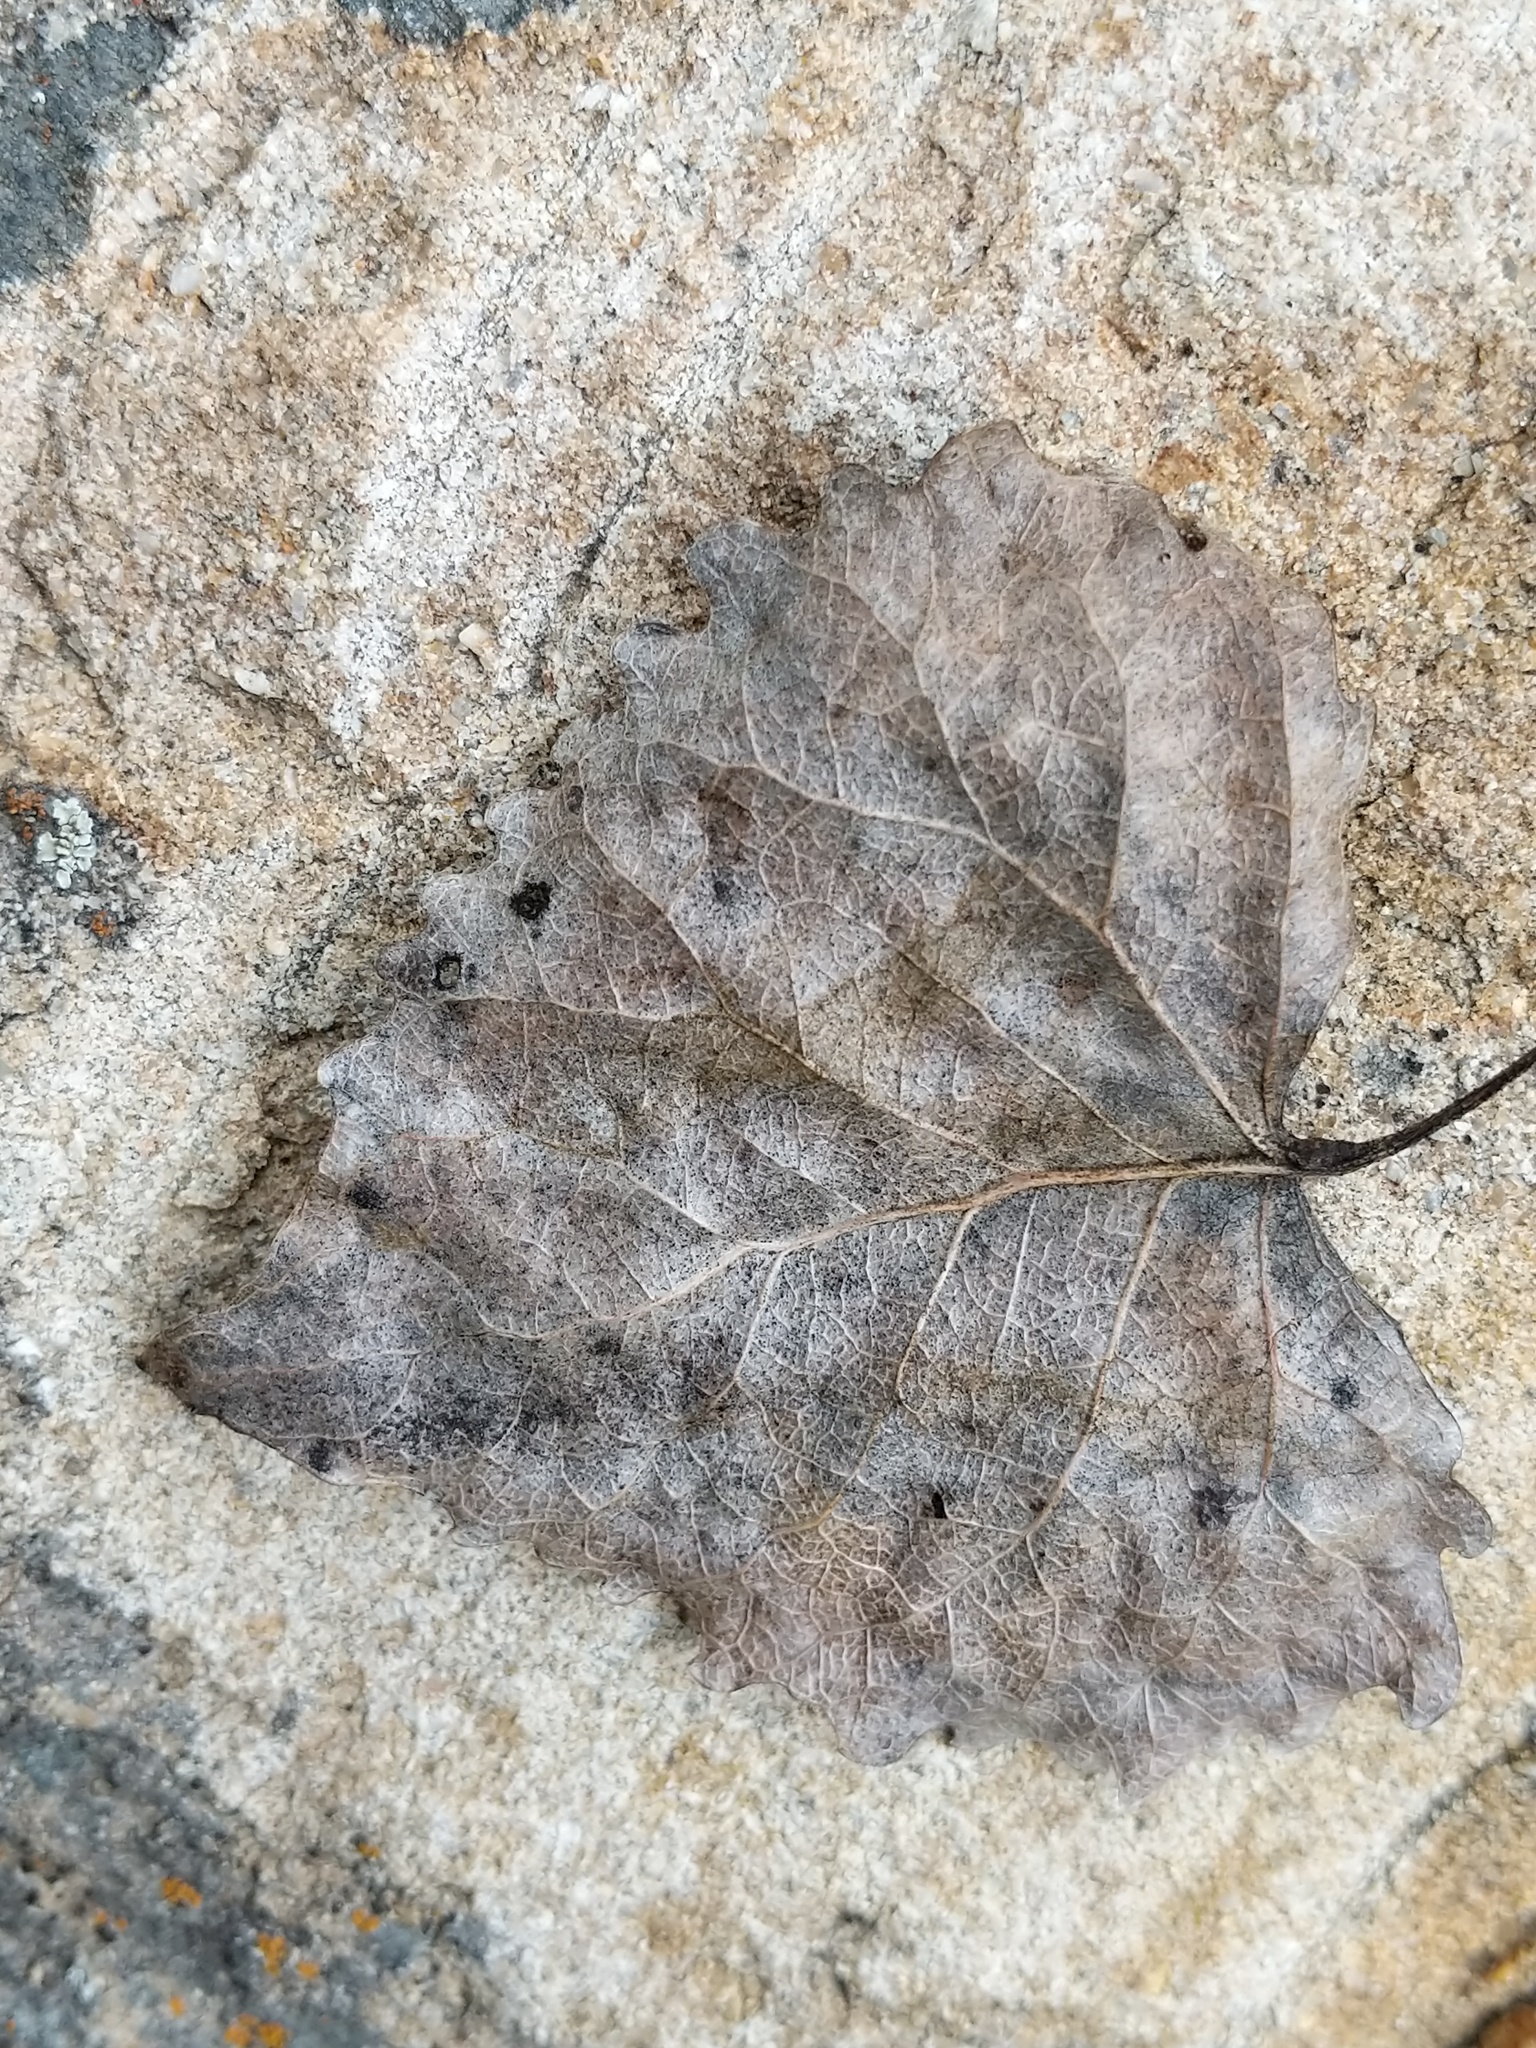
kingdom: Plantae
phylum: Tracheophyta
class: Magnoliopsida
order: Malpighiales
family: Salicaceae
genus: Populus
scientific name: Populus fremontii
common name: Fremont's cottonwood
